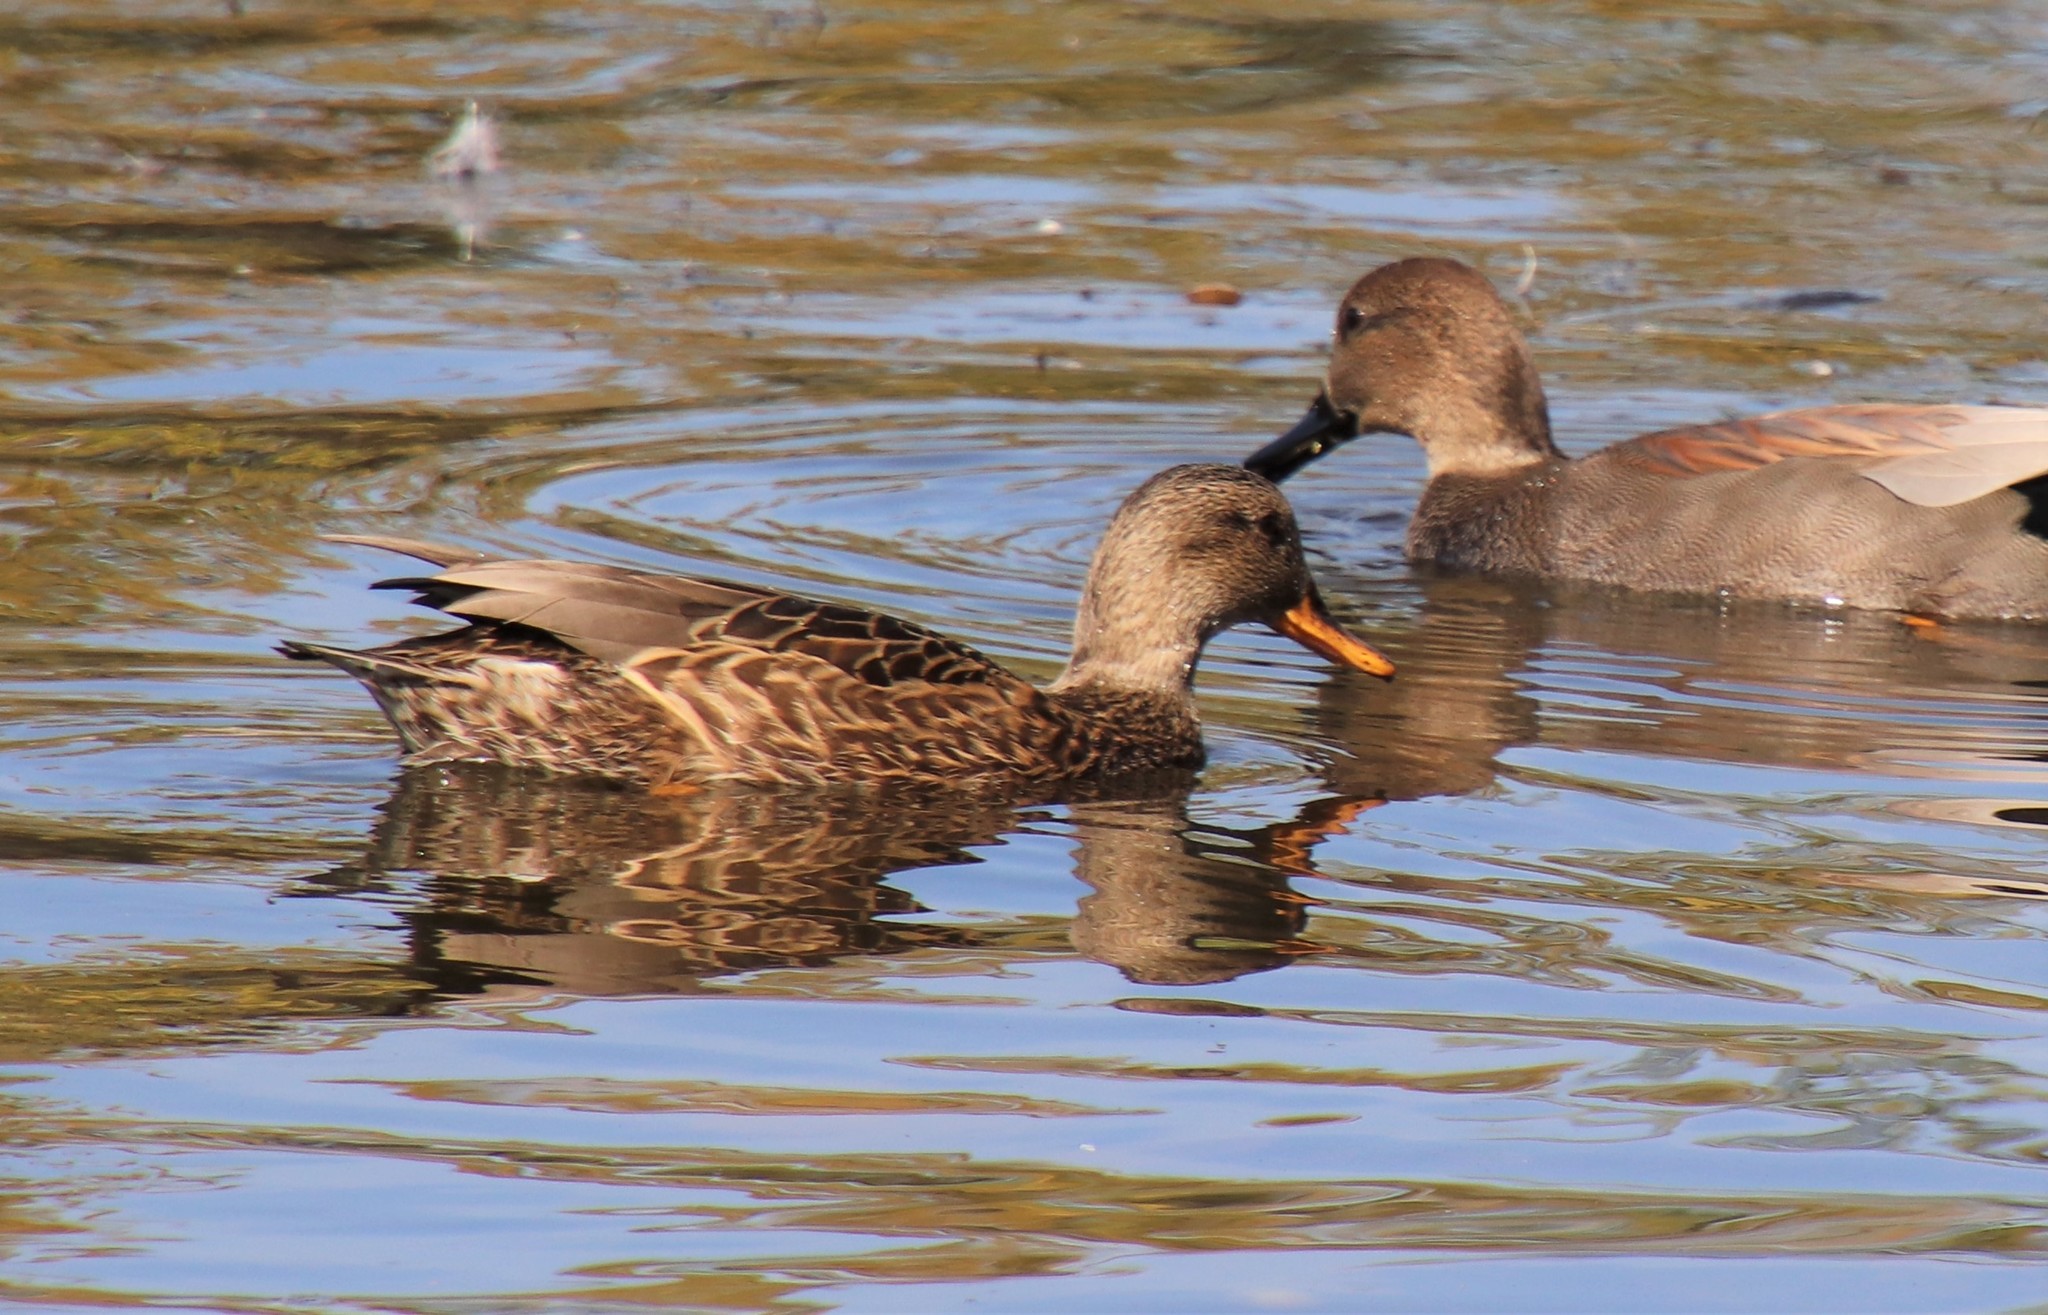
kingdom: Animalia
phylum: Chordata
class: Aves
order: Anseriformes
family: Anatidae
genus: Mareca
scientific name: Mareca strepera
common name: Gadwall
